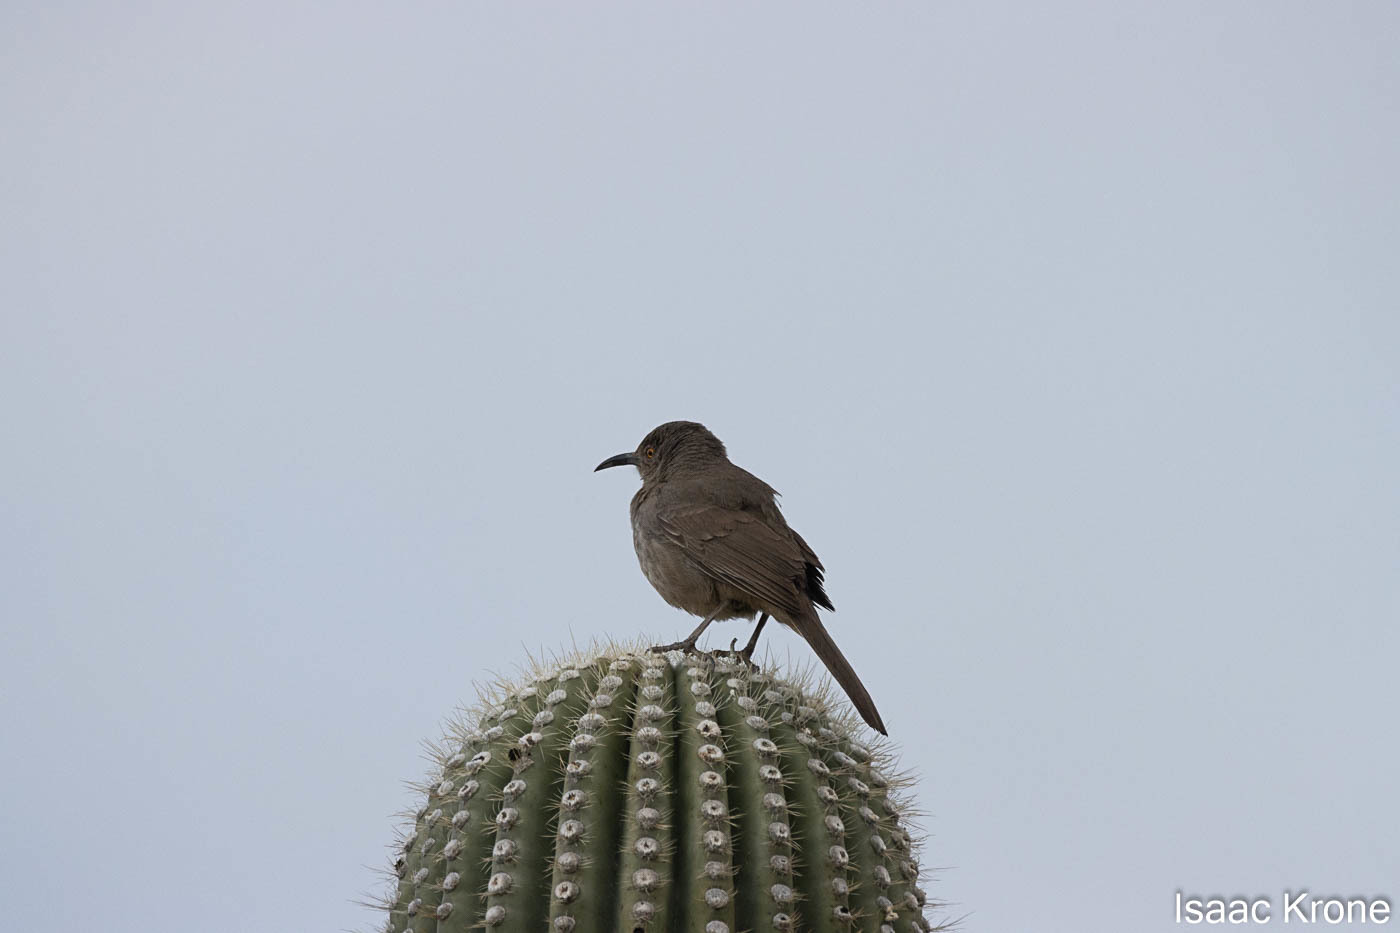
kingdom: Animalia
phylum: Chordata
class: Aves
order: Passeriformes
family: Mimidae
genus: Toxostoma
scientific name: Toxostoma curvirostre
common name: Curve-billed thrasher
